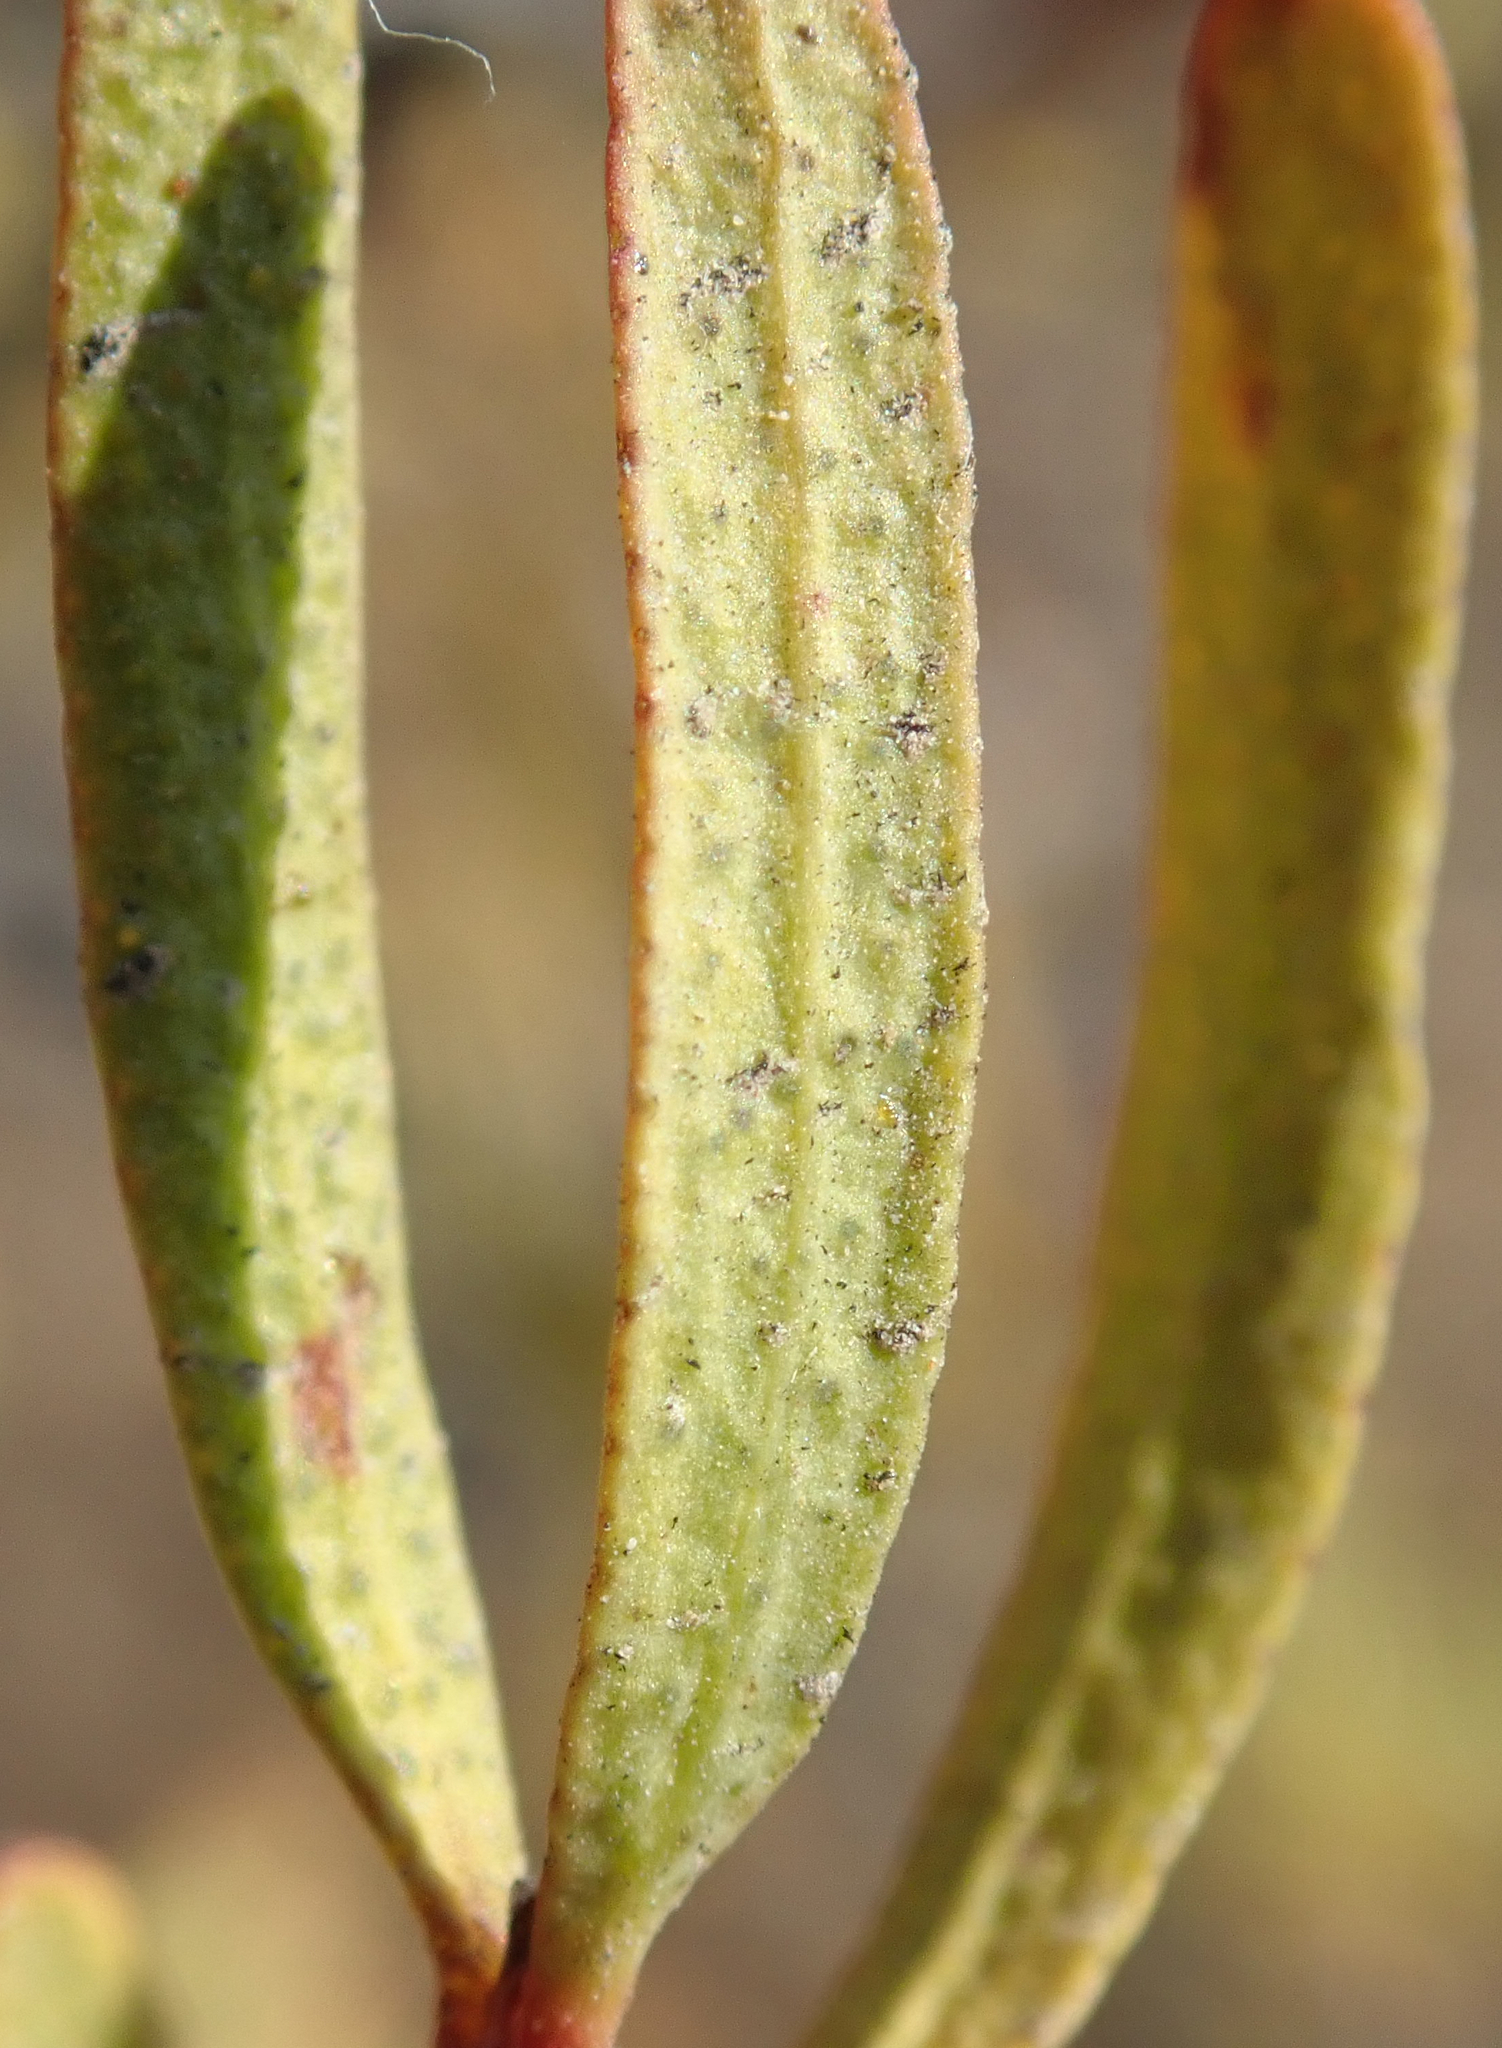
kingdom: Plantae
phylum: Tracheophyta
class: Magnoliopsida
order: Sapindales
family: Rutaceae
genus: Cneoridium
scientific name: Cneoridium dumosum
